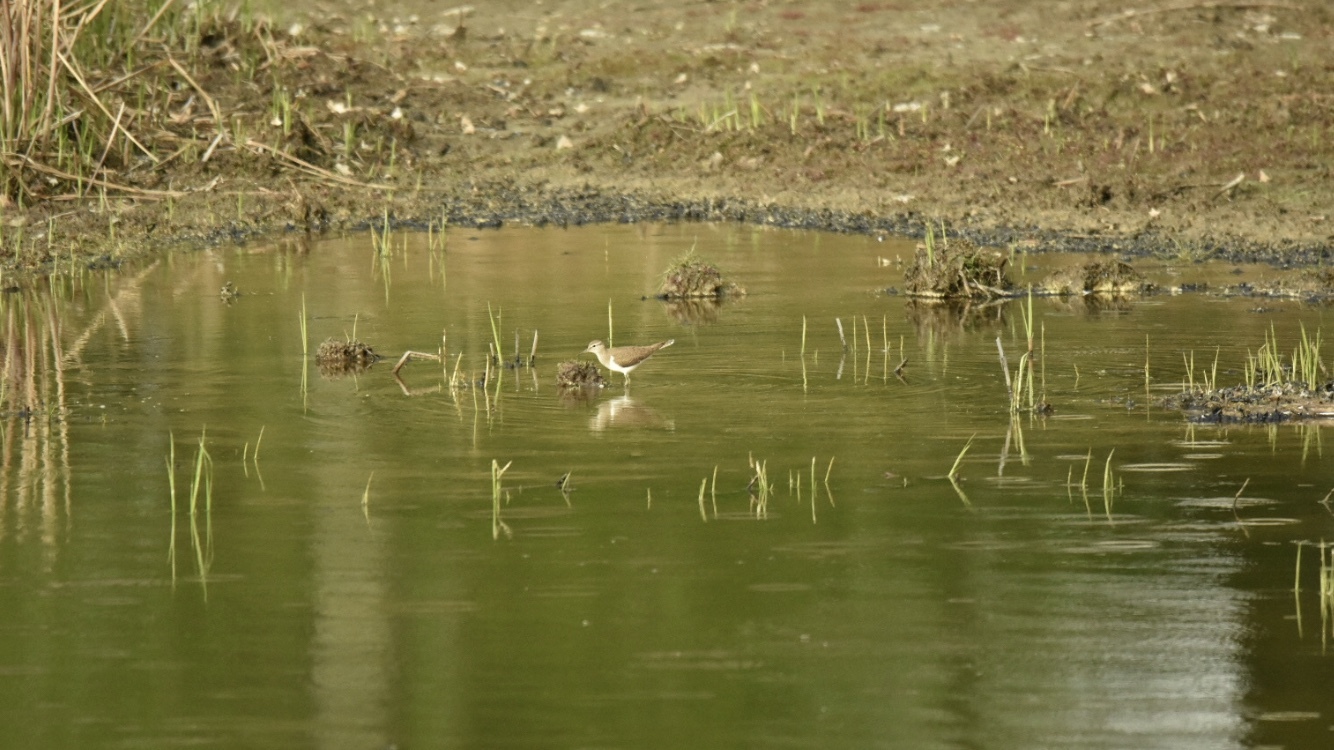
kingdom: Animalia
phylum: Chordata
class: Aves
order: Charadriiformes
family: Scolopacidae
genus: Actitis
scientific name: Actitis hypoleucos
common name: Common sandpiper
